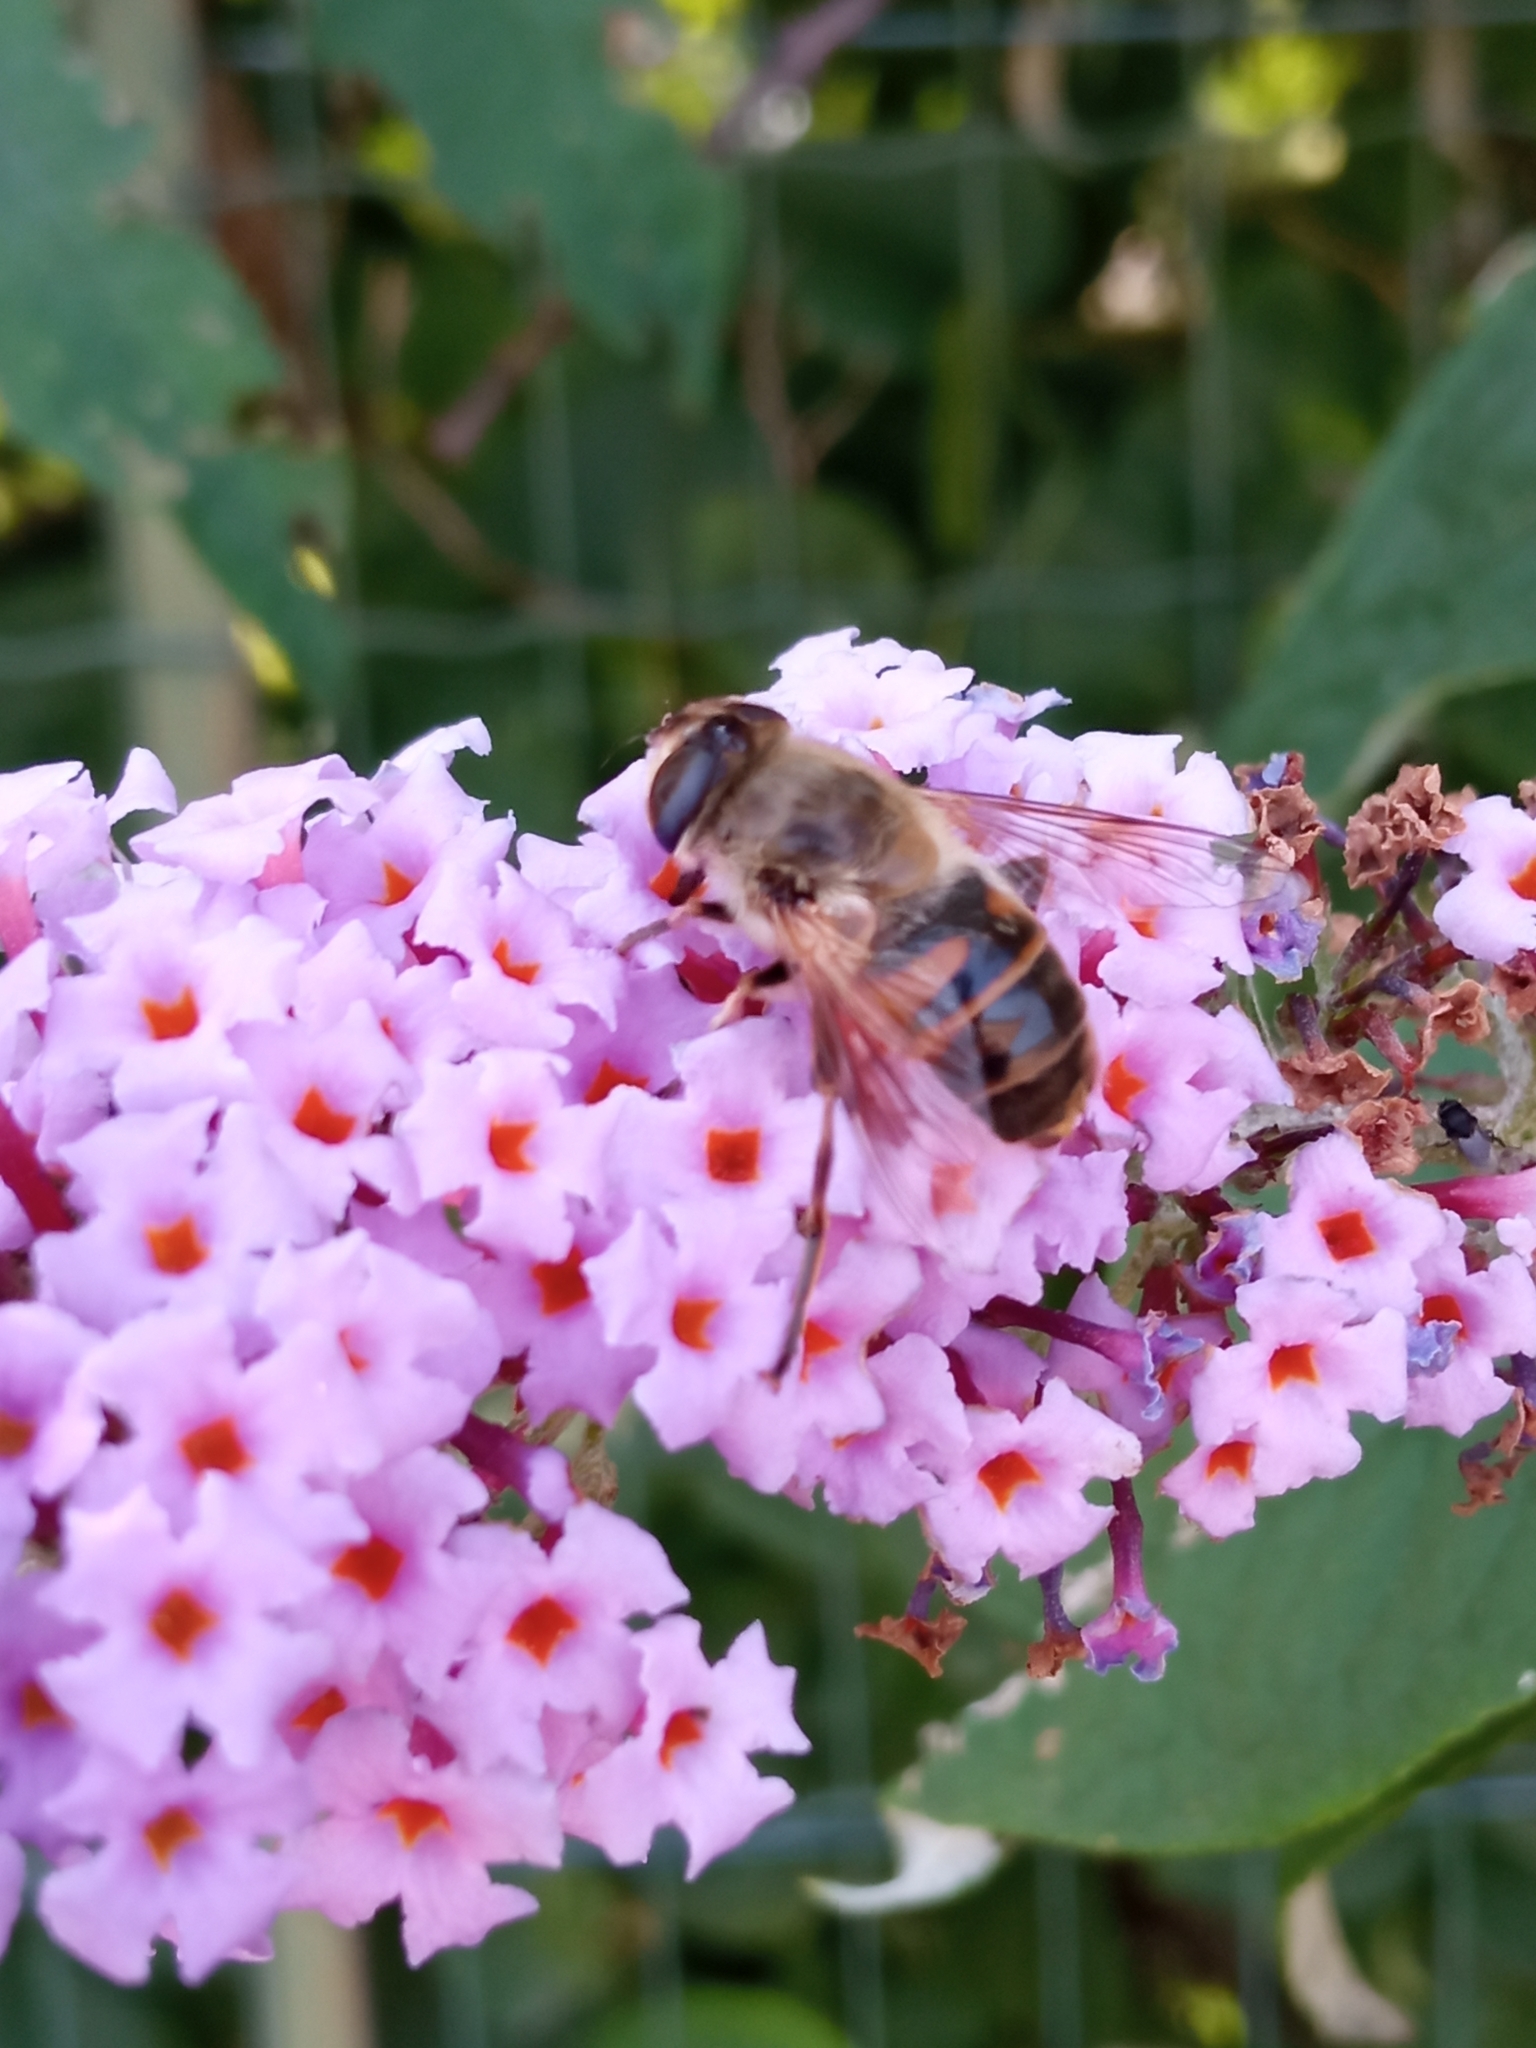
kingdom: Animalia
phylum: Arthropoda
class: Insecta
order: Diptera
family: Syrphidae
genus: Eristalis
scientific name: Eristalis tenax
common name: Drone fly
